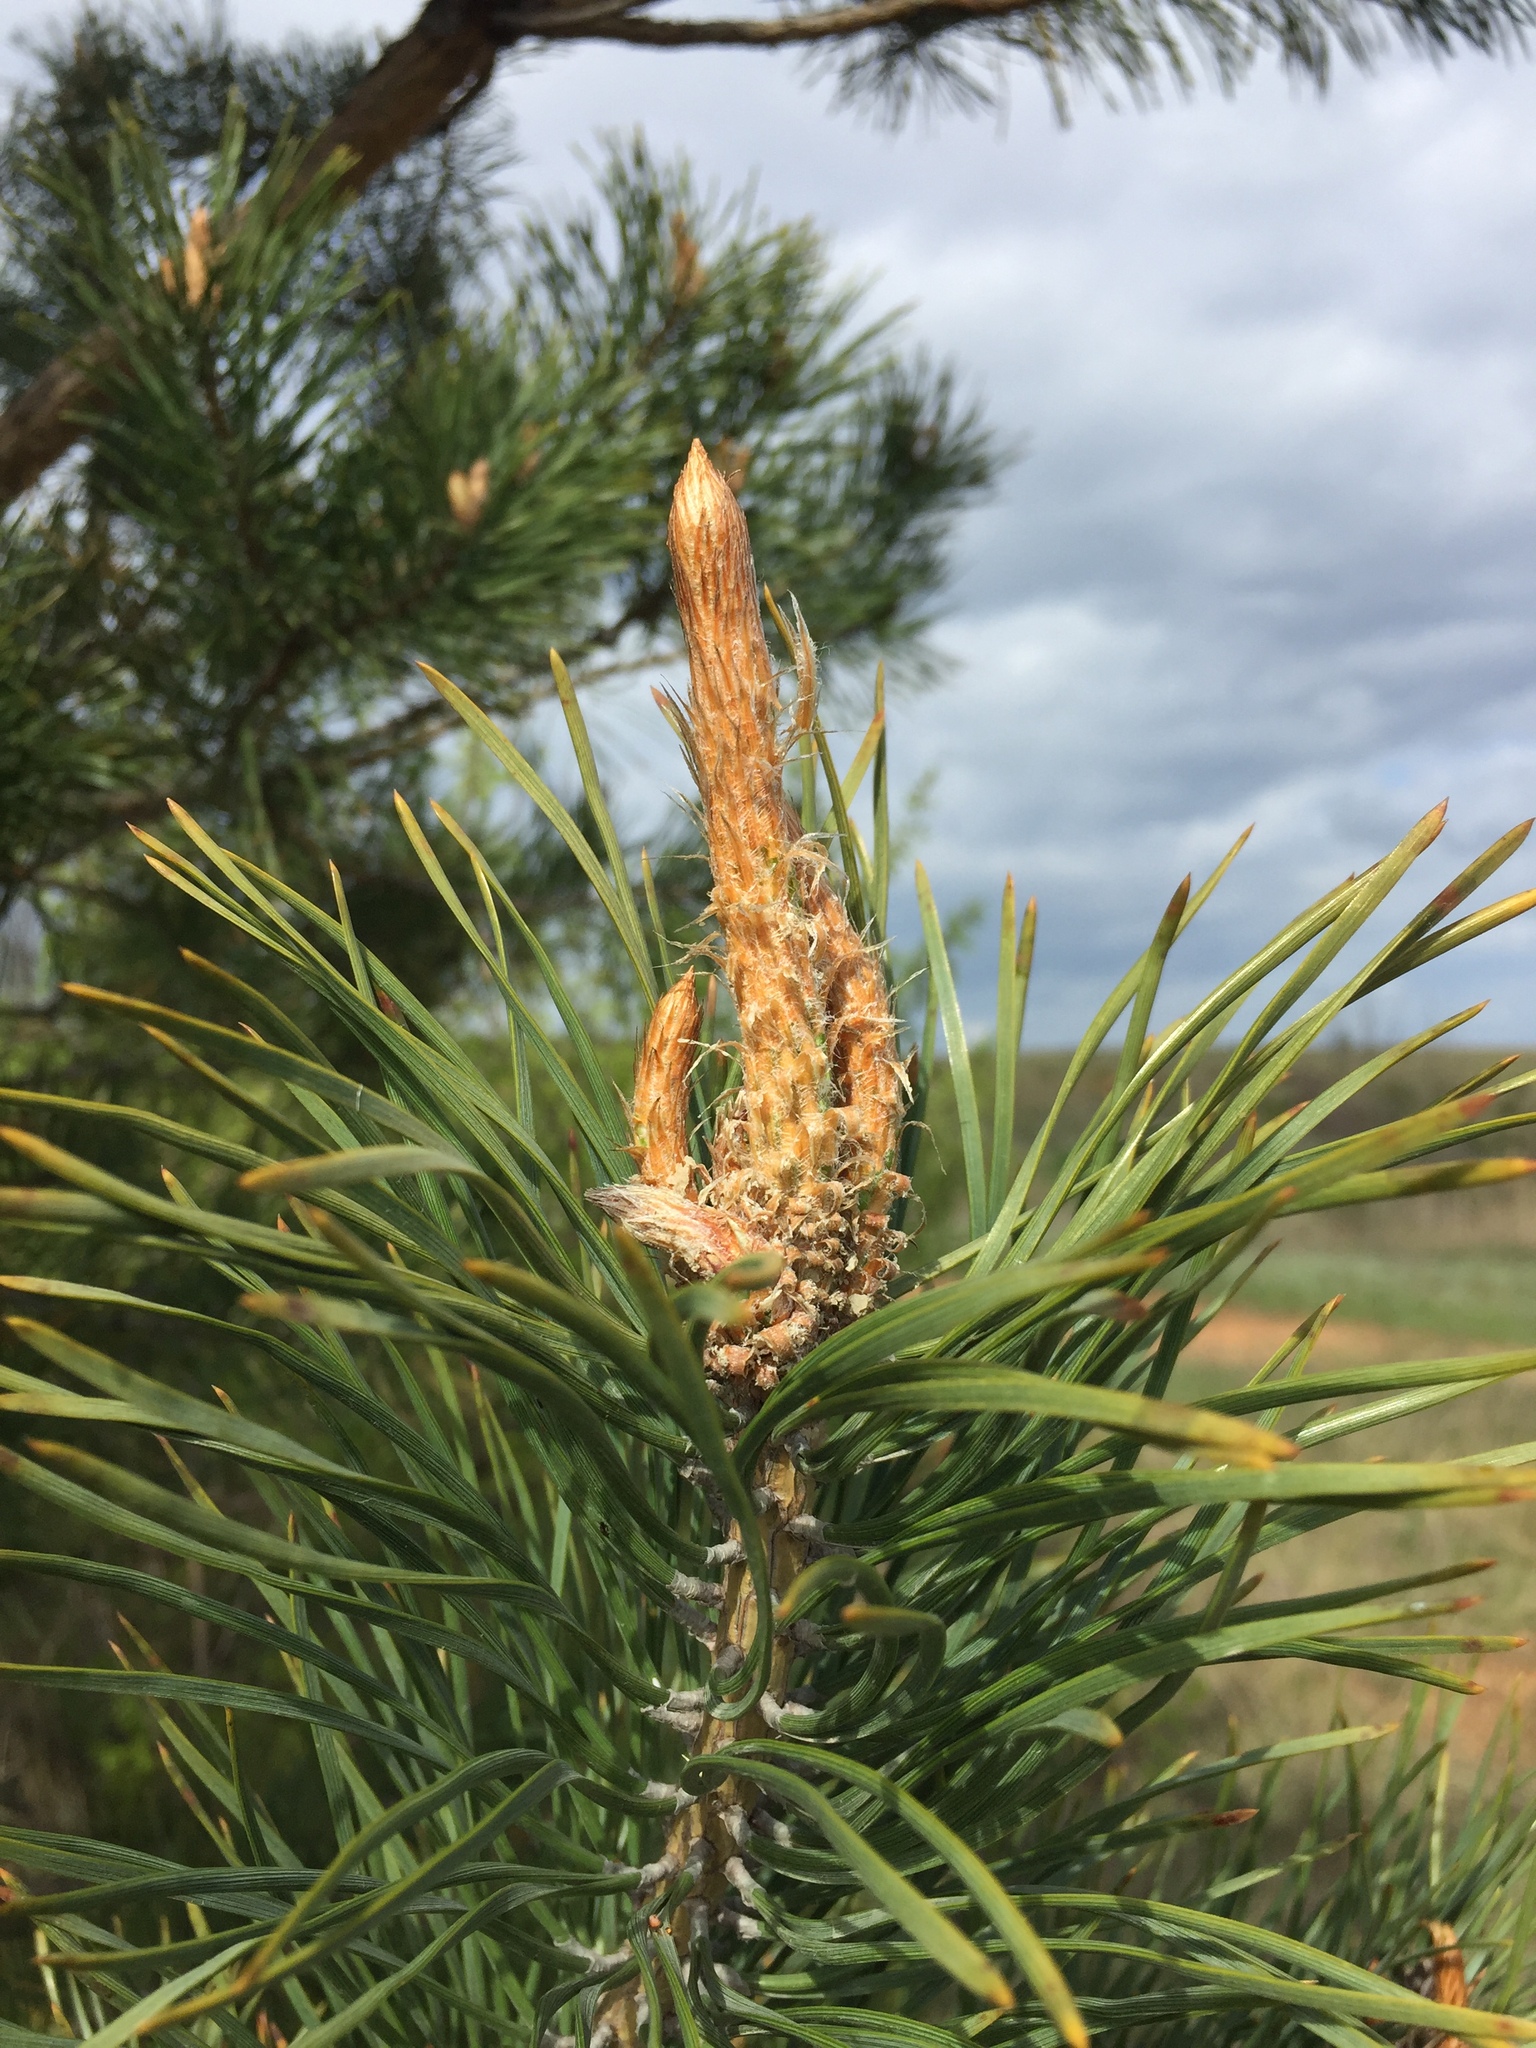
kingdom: Plantae
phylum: Tracheophyta
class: Pinopsida
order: Pinales
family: Pinaceae
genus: Pinus
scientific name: Pinus sylvestris
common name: Scots pine
